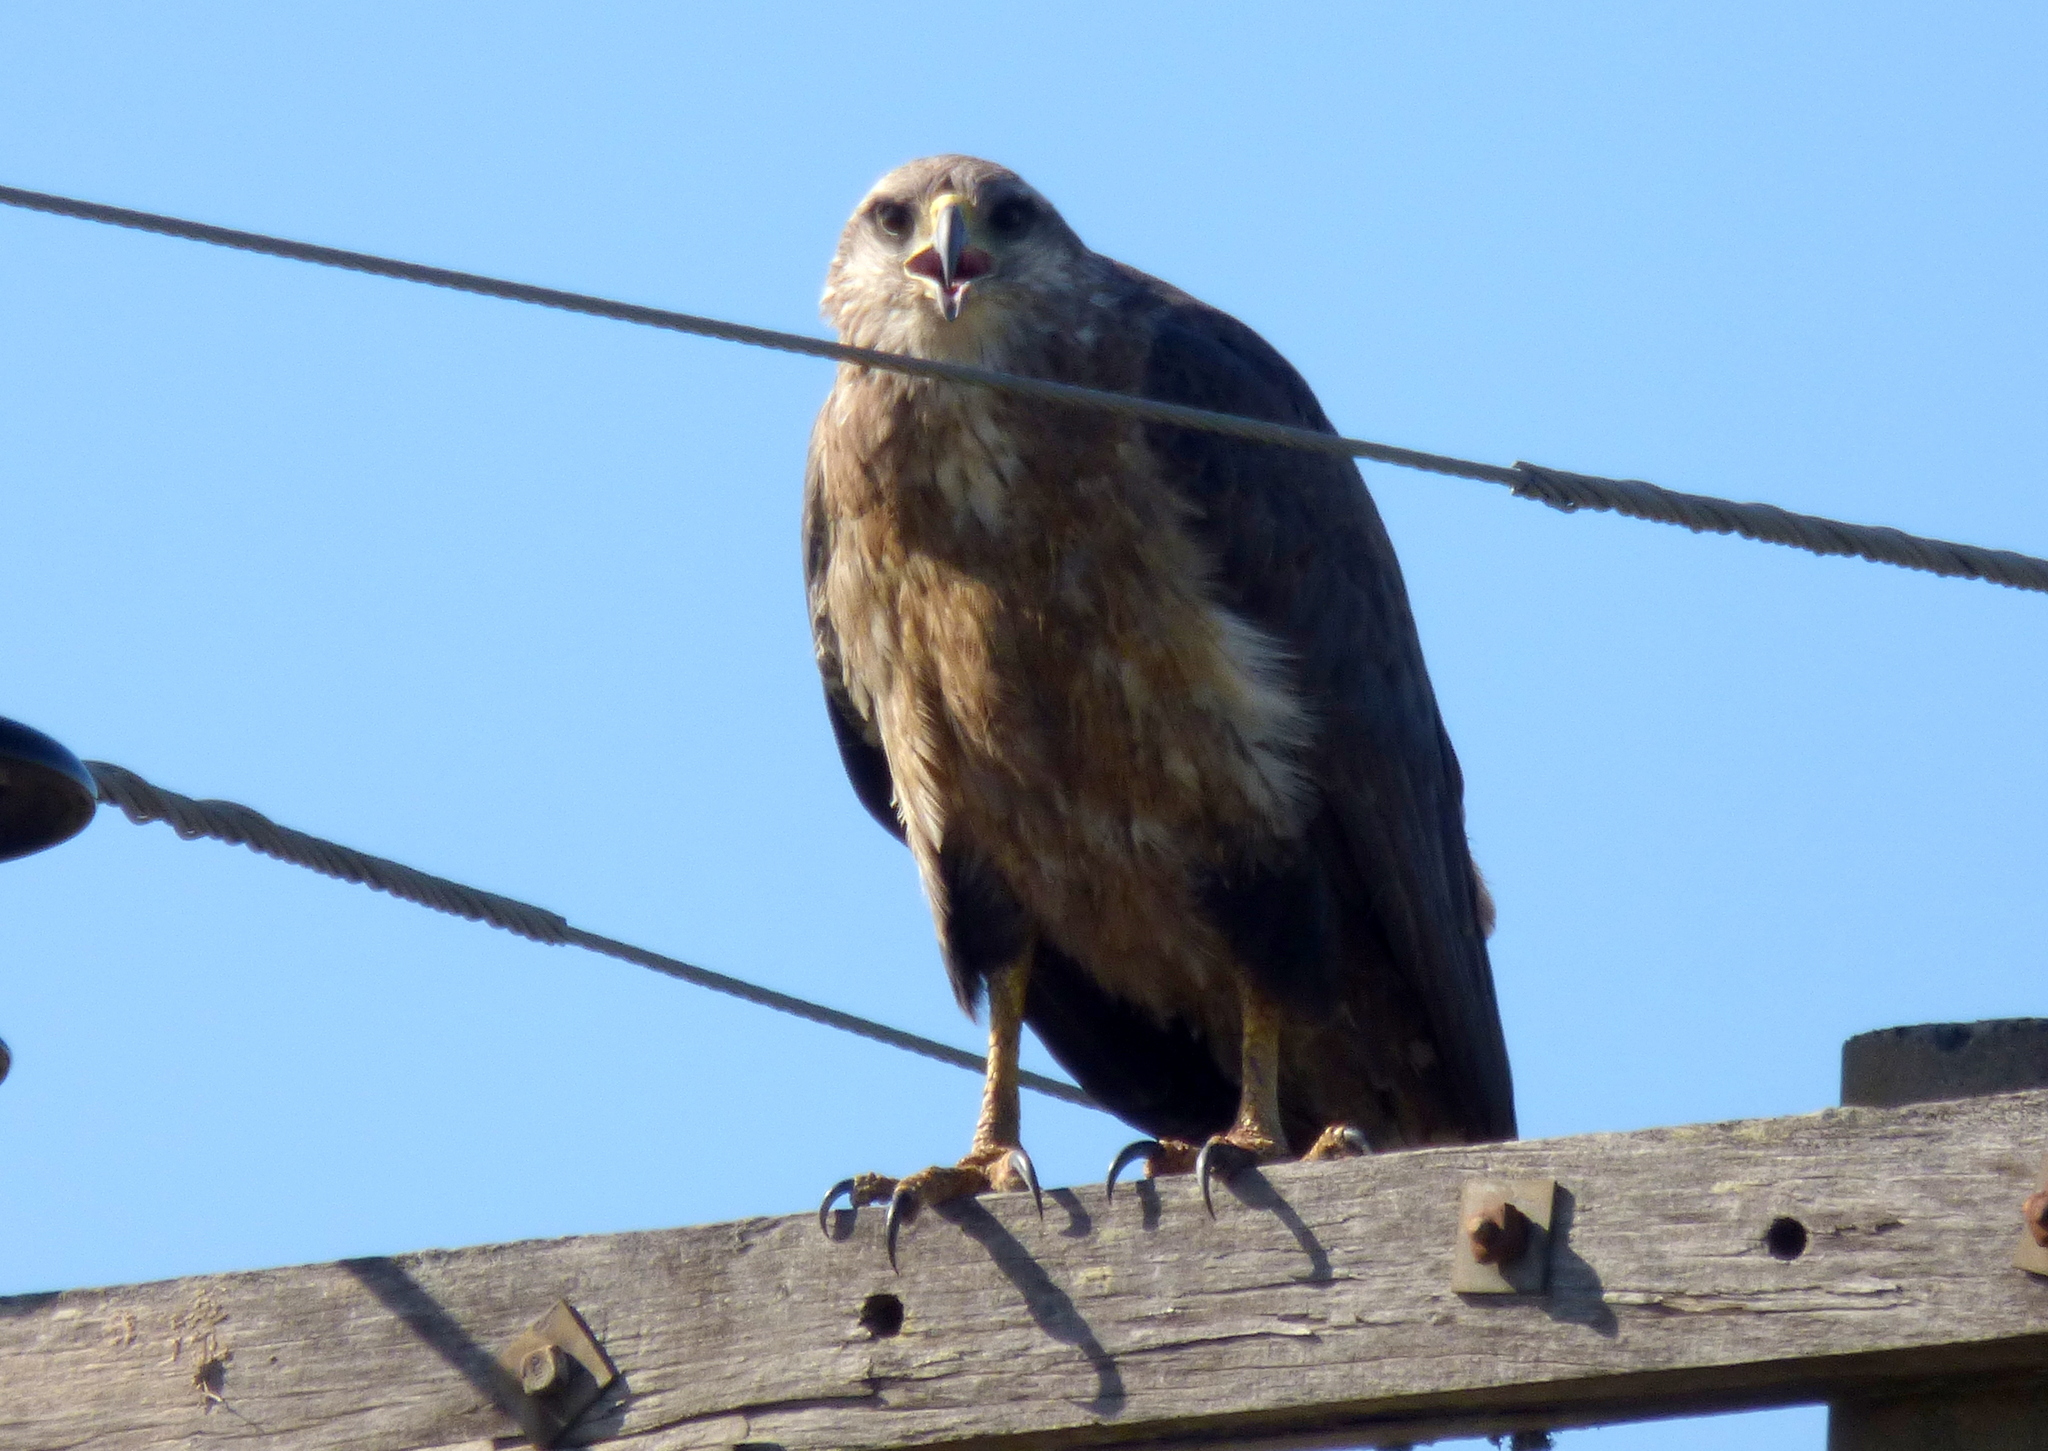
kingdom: Animalia
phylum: Chordata
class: Aves
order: Accipitriformes
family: Accipitridae
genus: Harpyhaliaetus
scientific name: Harpyhaliaetus coronatus
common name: Crowned solitary eagle
